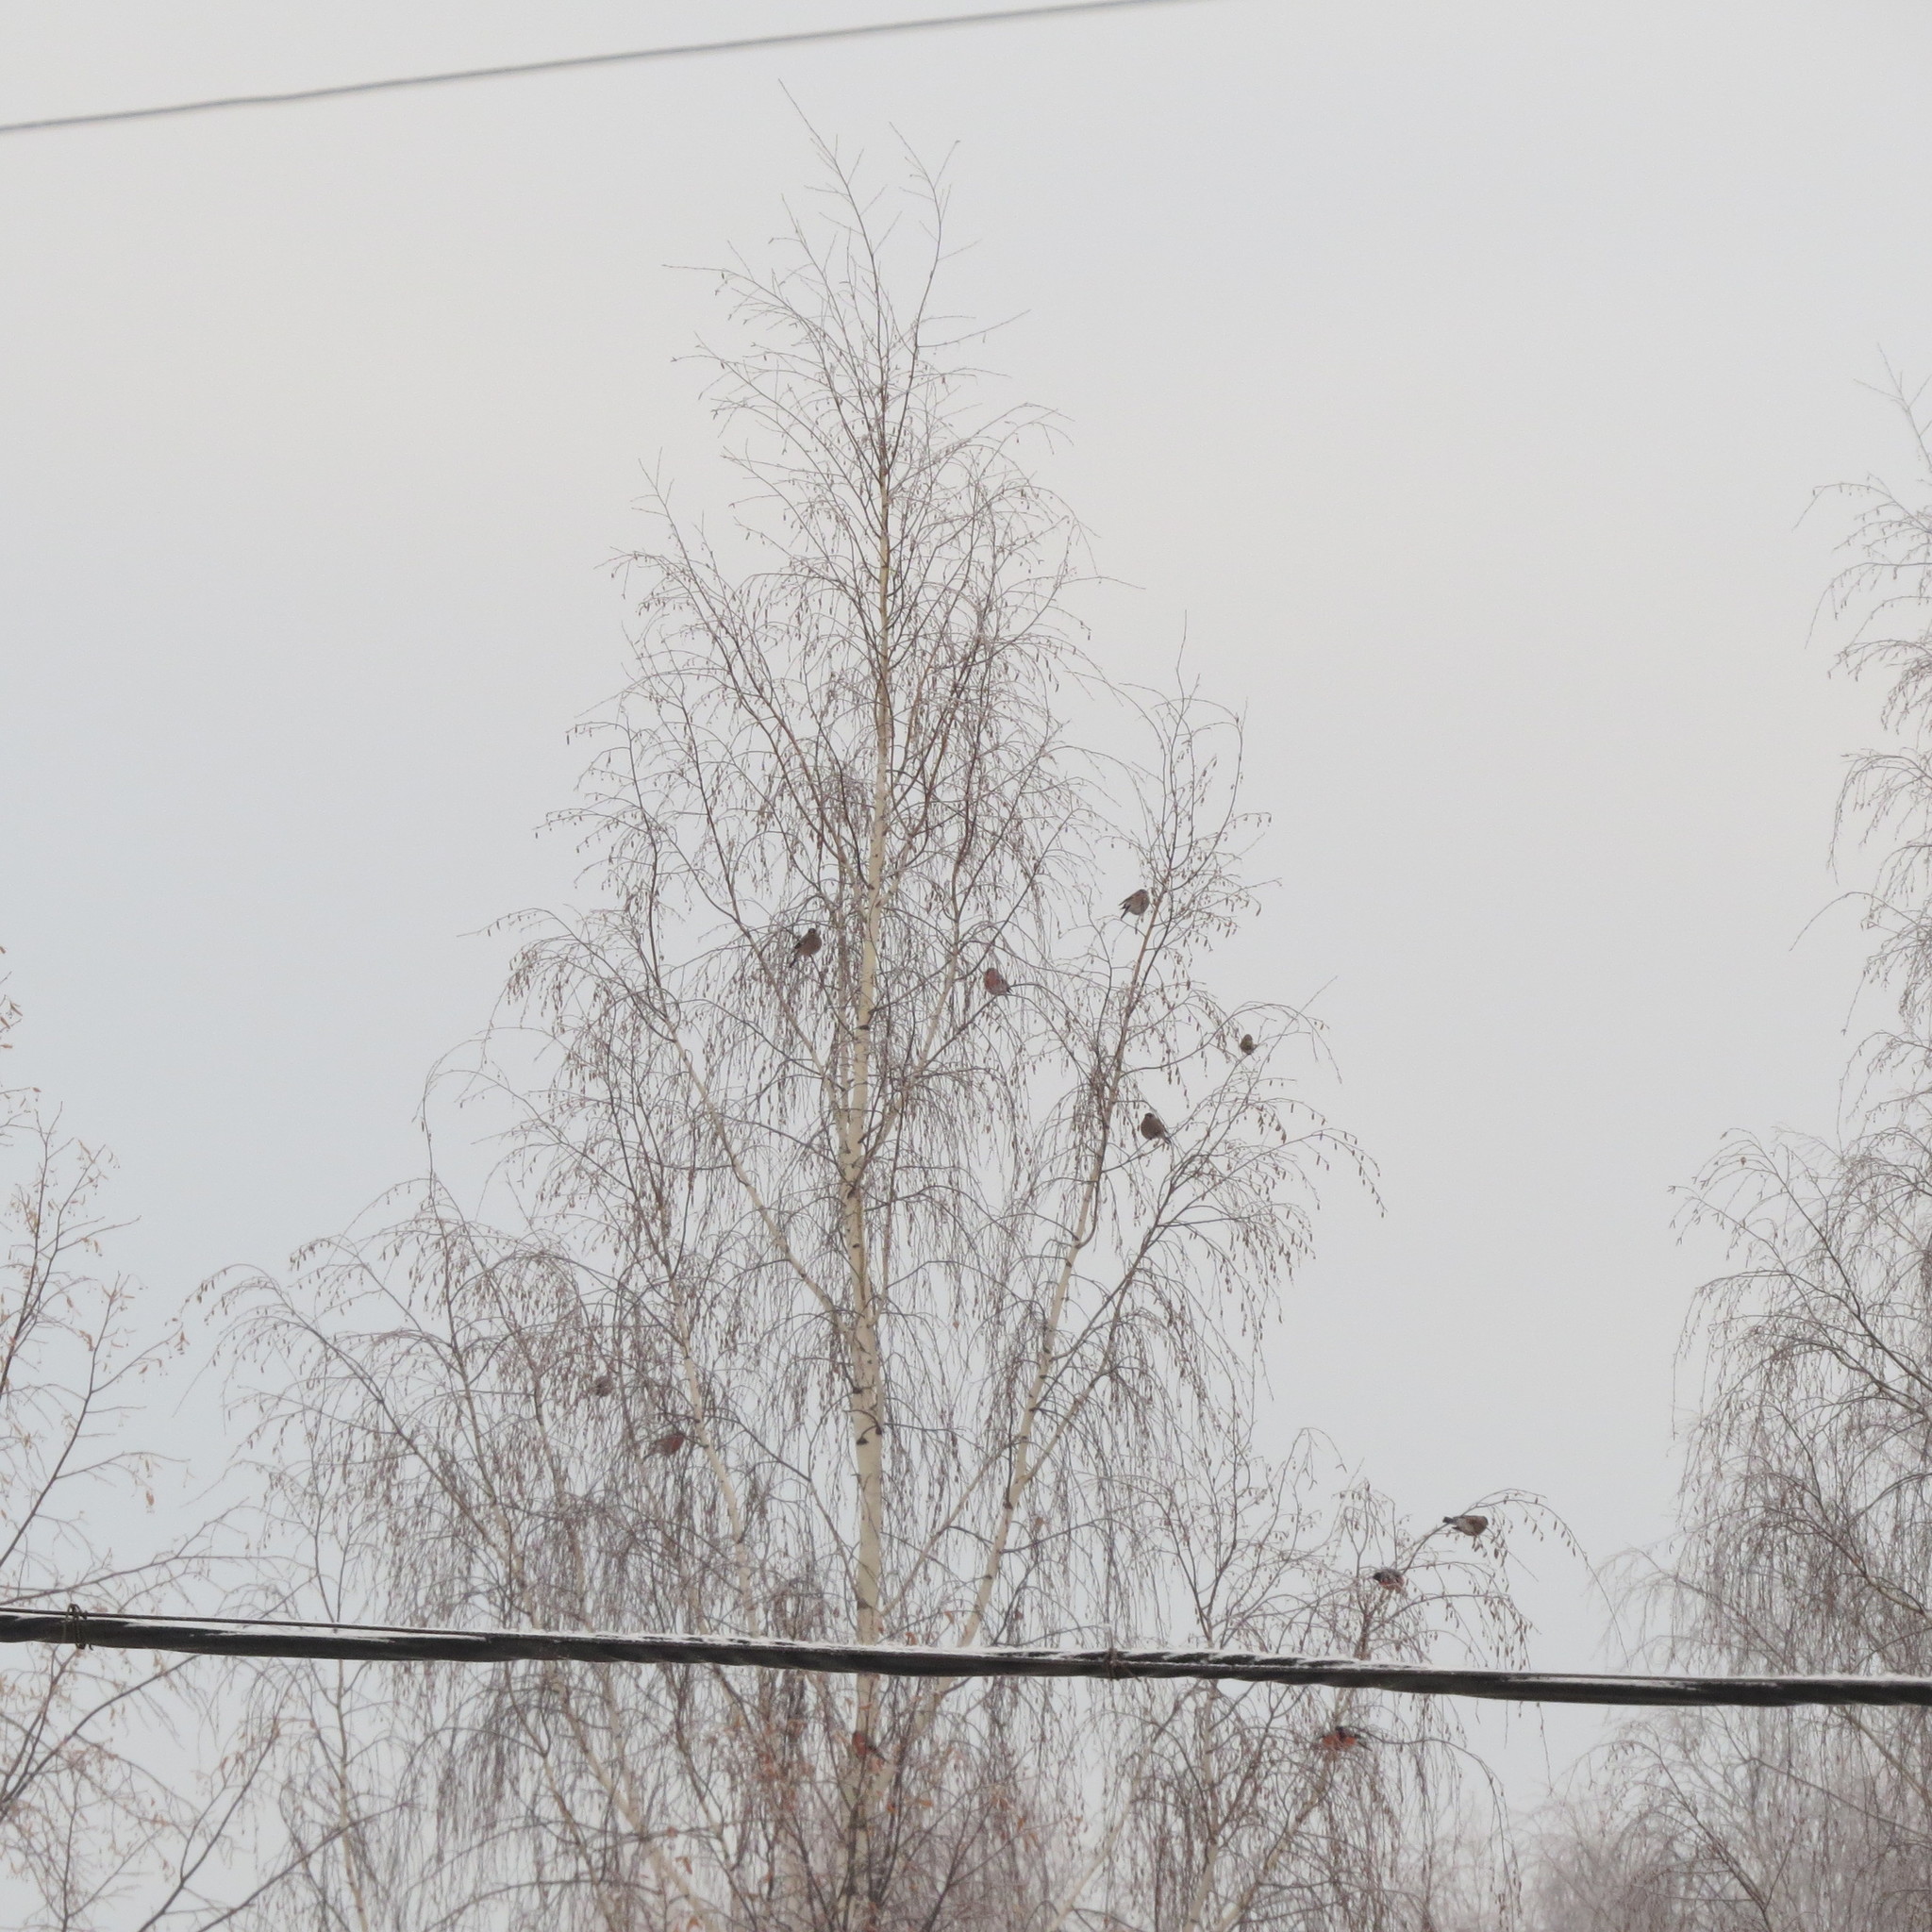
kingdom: Animalia
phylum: Chordata
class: Aves
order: Passeriformes
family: Fringillidae
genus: Pyrrhula
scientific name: Pyrrhula pyrrhula
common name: Eurasian bullfinch
